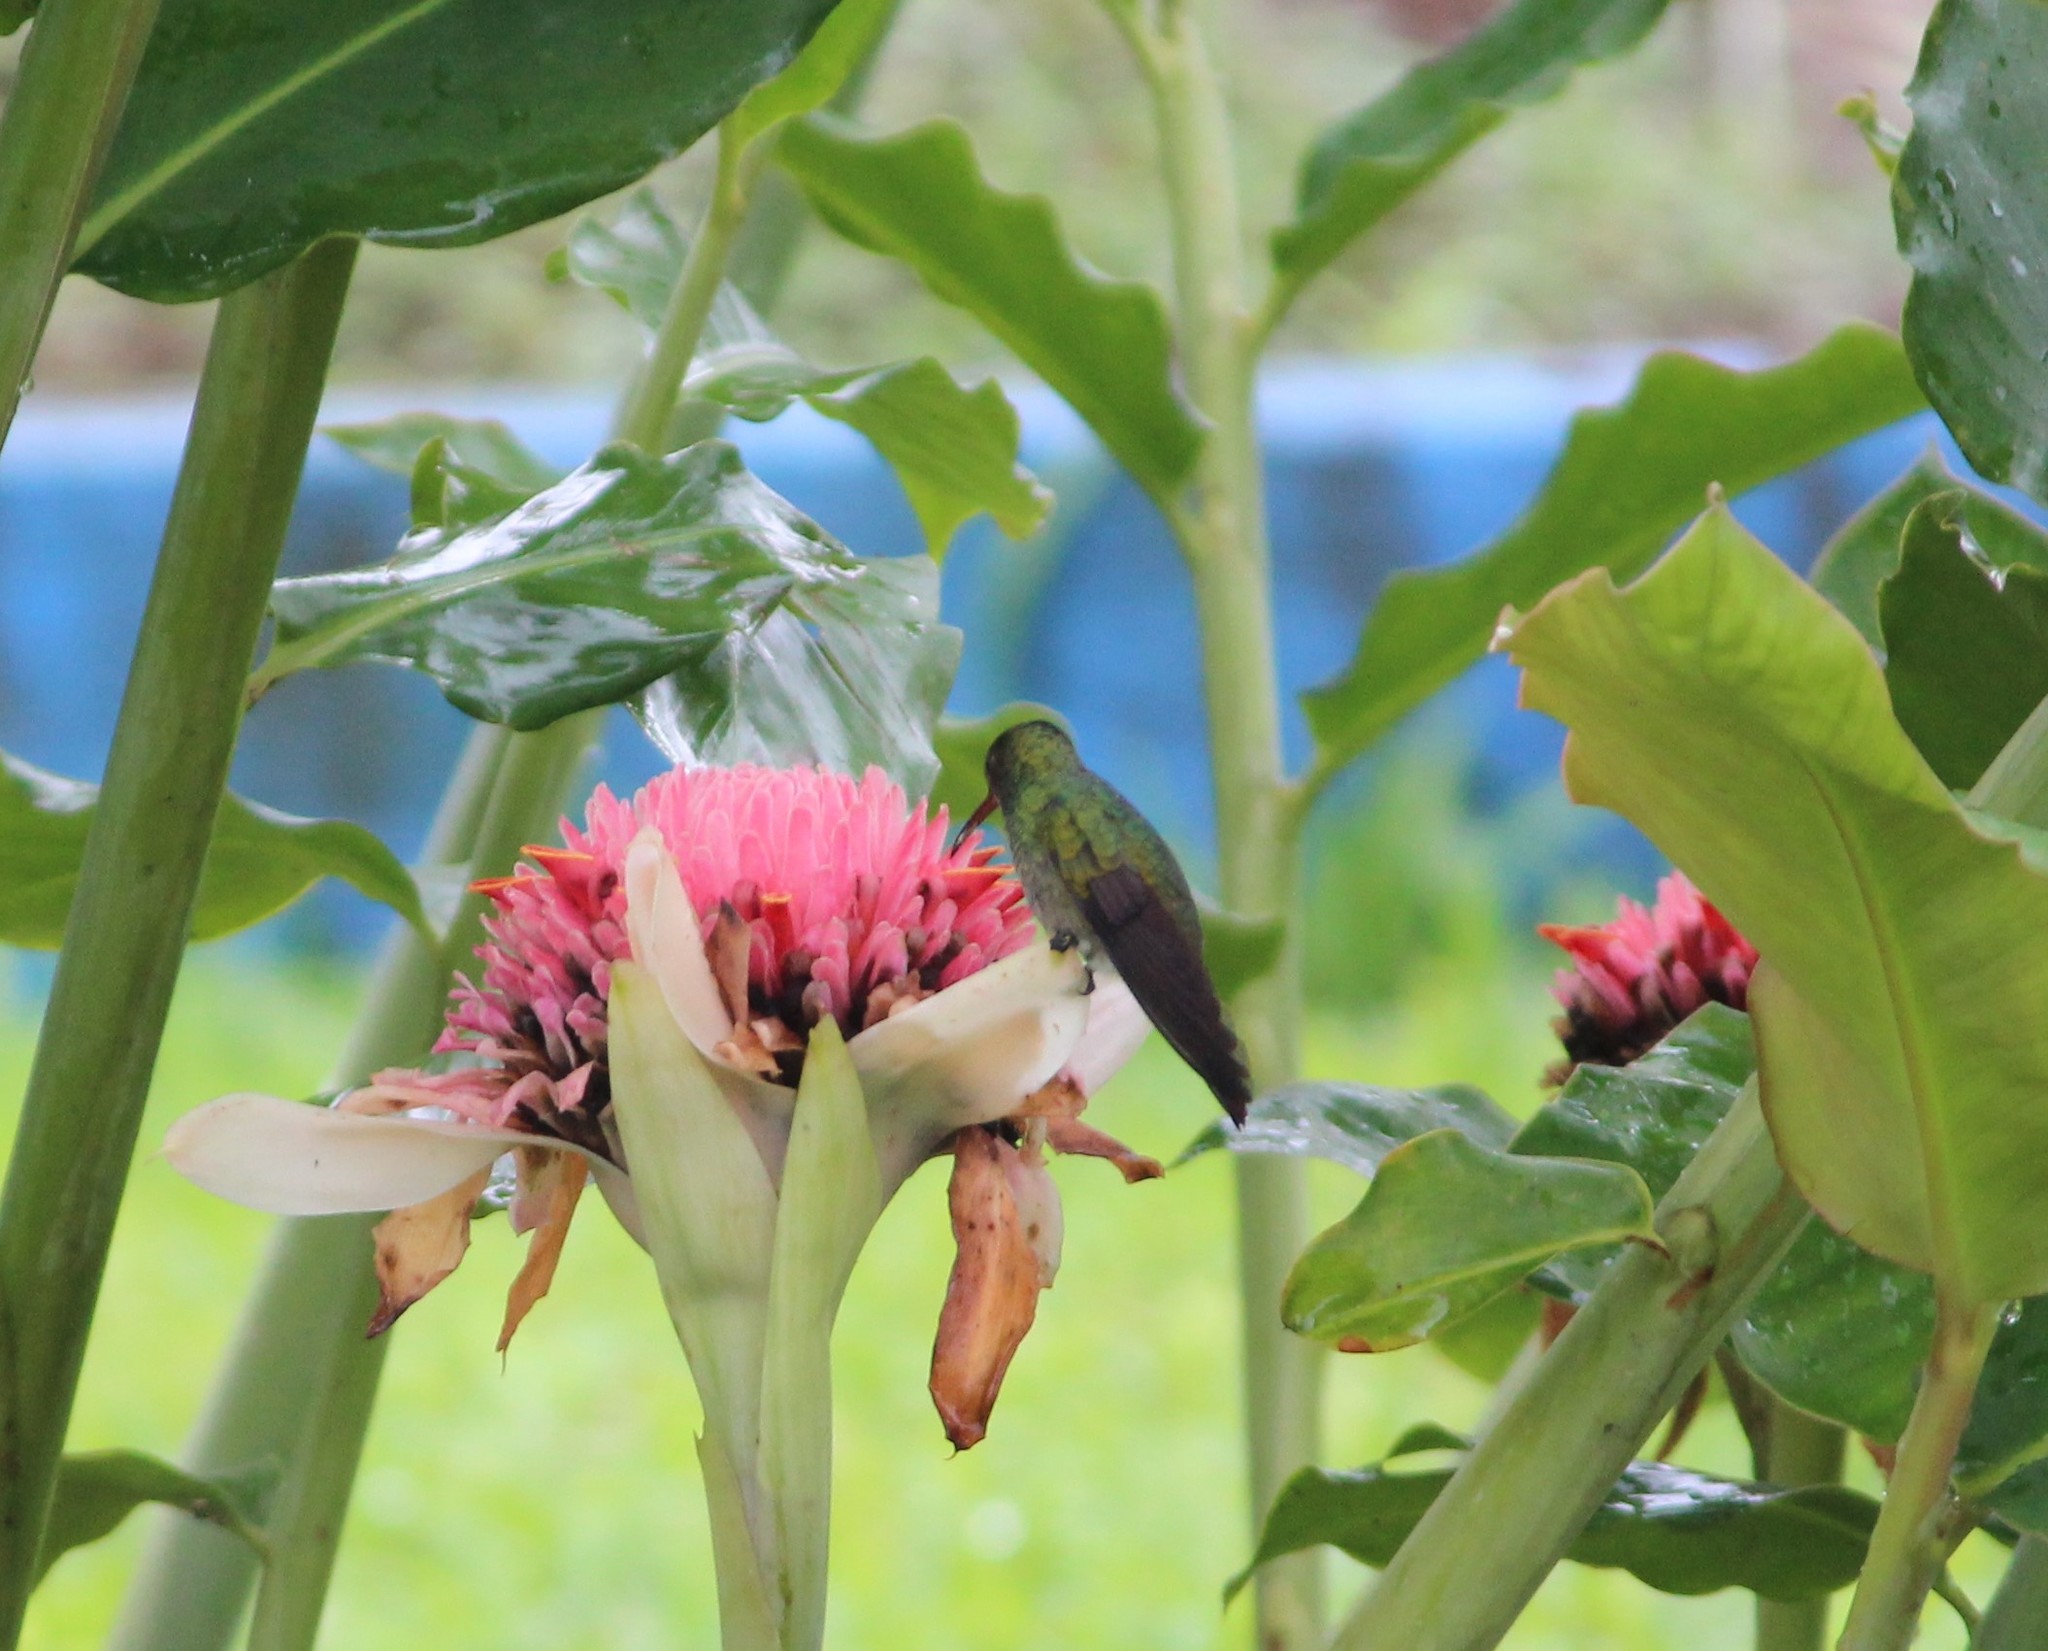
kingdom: Animalia
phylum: Chordata
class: Aves
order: Apodiformes
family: Trochilidae
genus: Amazilia
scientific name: Amazilia tzacatl
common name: Rufous-tailed hummingbird
